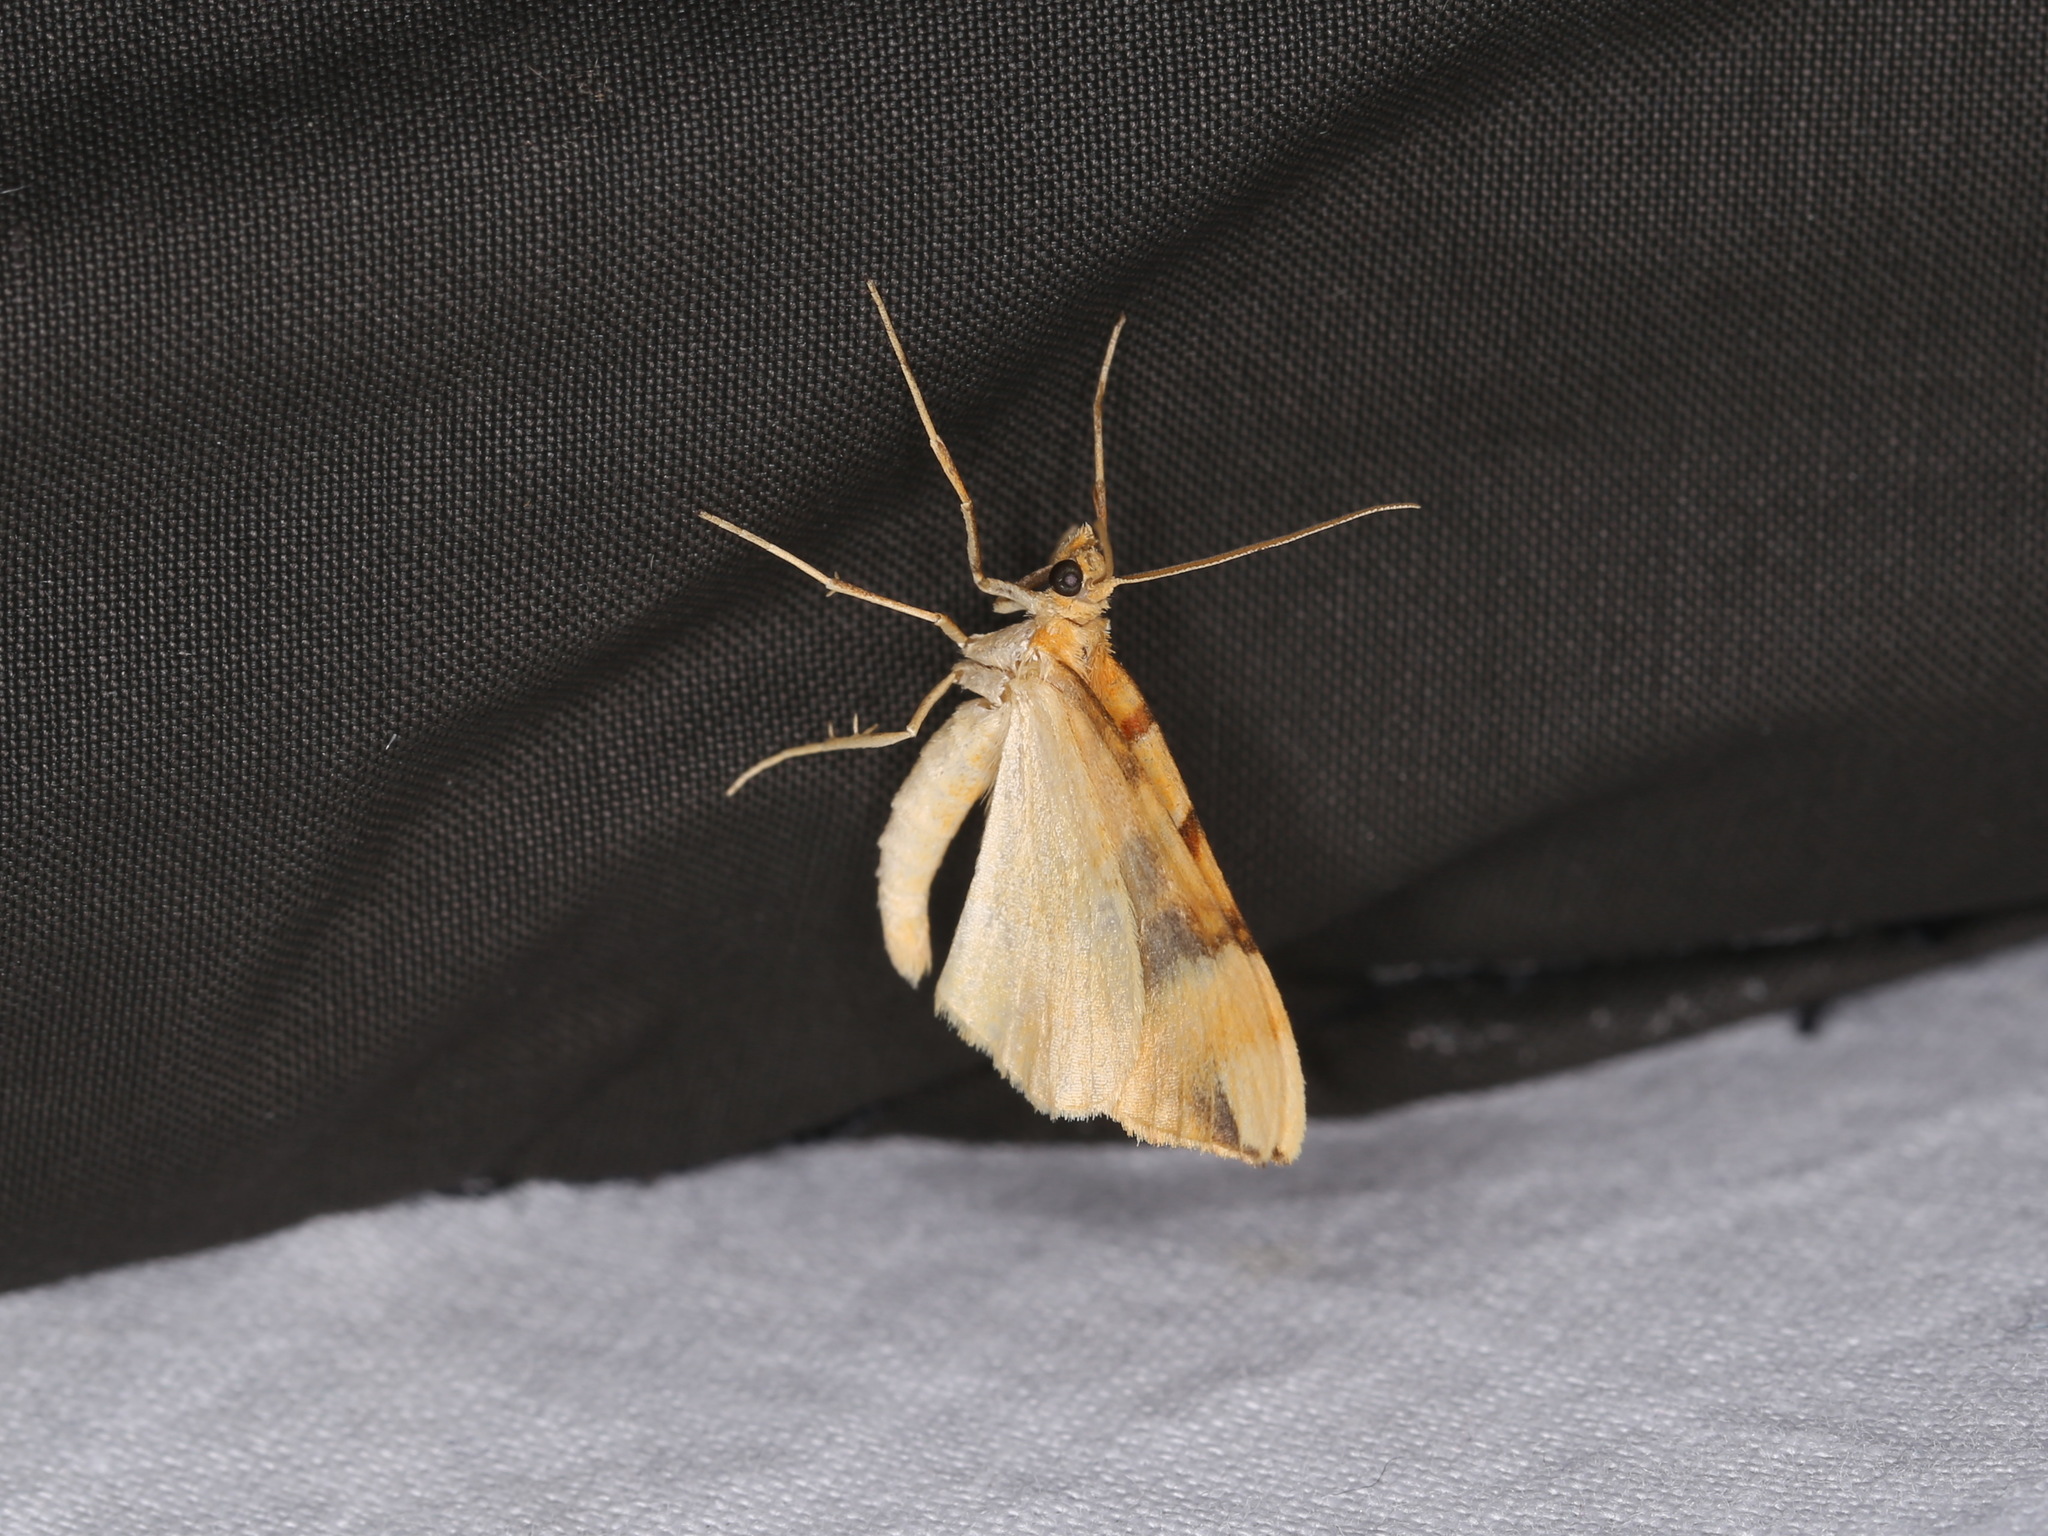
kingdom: Animalia
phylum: Arthropoda
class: Insecta
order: Lepidoptera
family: Geometridae
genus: Cidaria
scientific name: Cidaria fulvata
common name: Barred yellow
